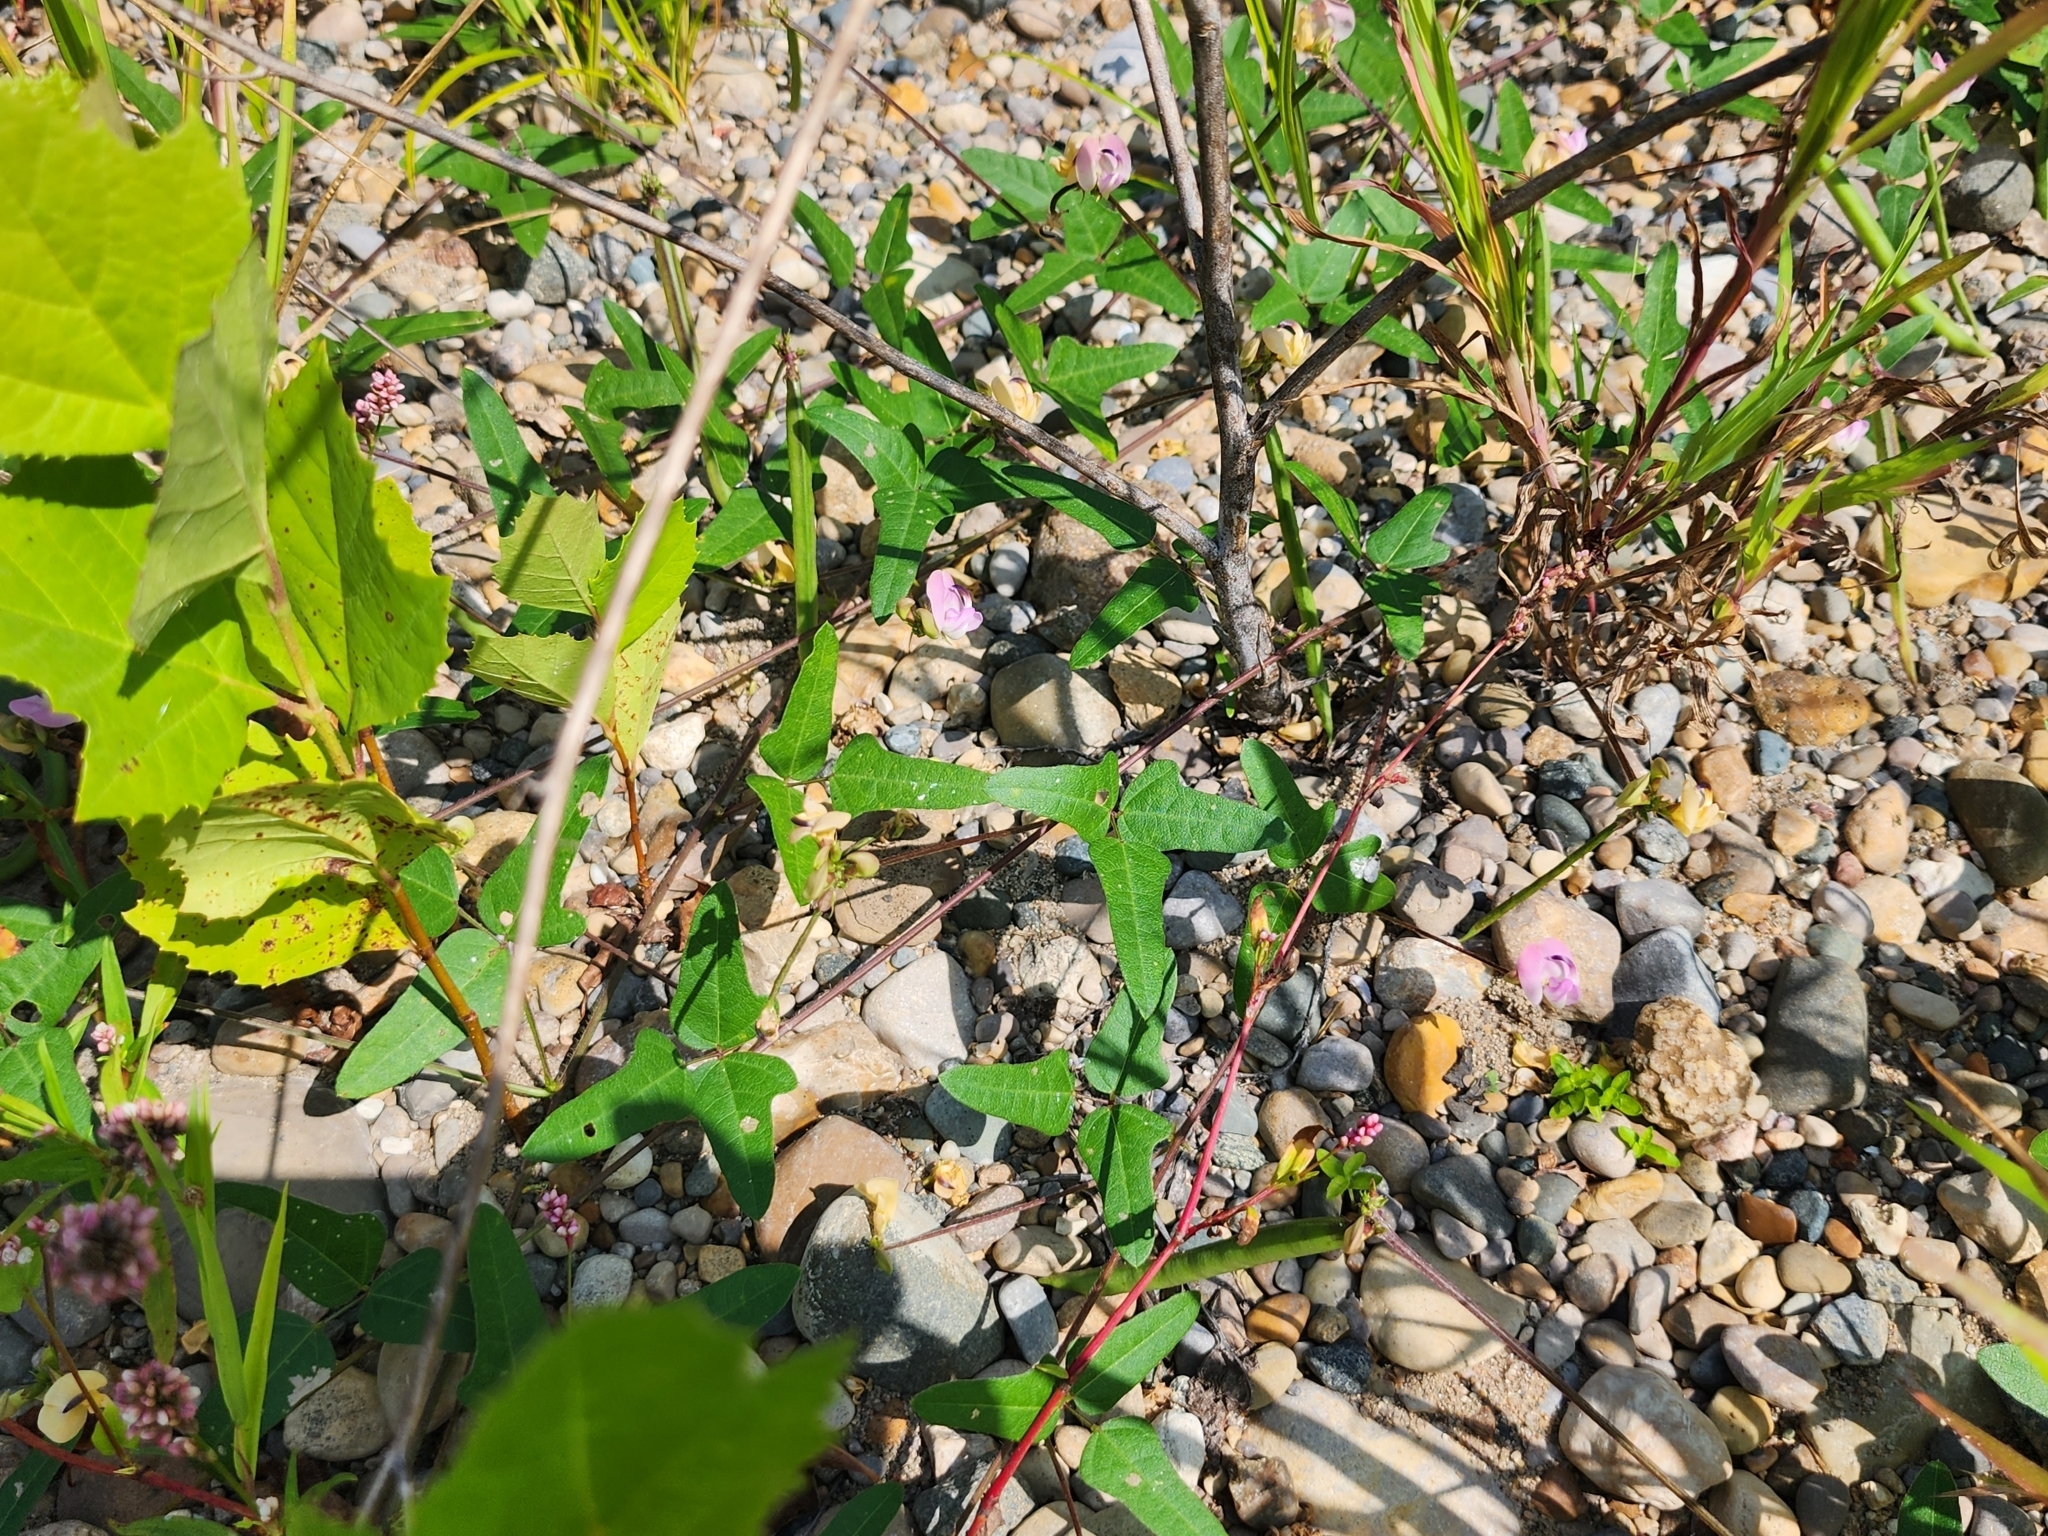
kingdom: Plantae
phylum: Tracheophyta
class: Magnoliopsida
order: Fabales
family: Fabaceae
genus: Strophostyles
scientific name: Strophostyles helvola
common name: Trailing wild bean
